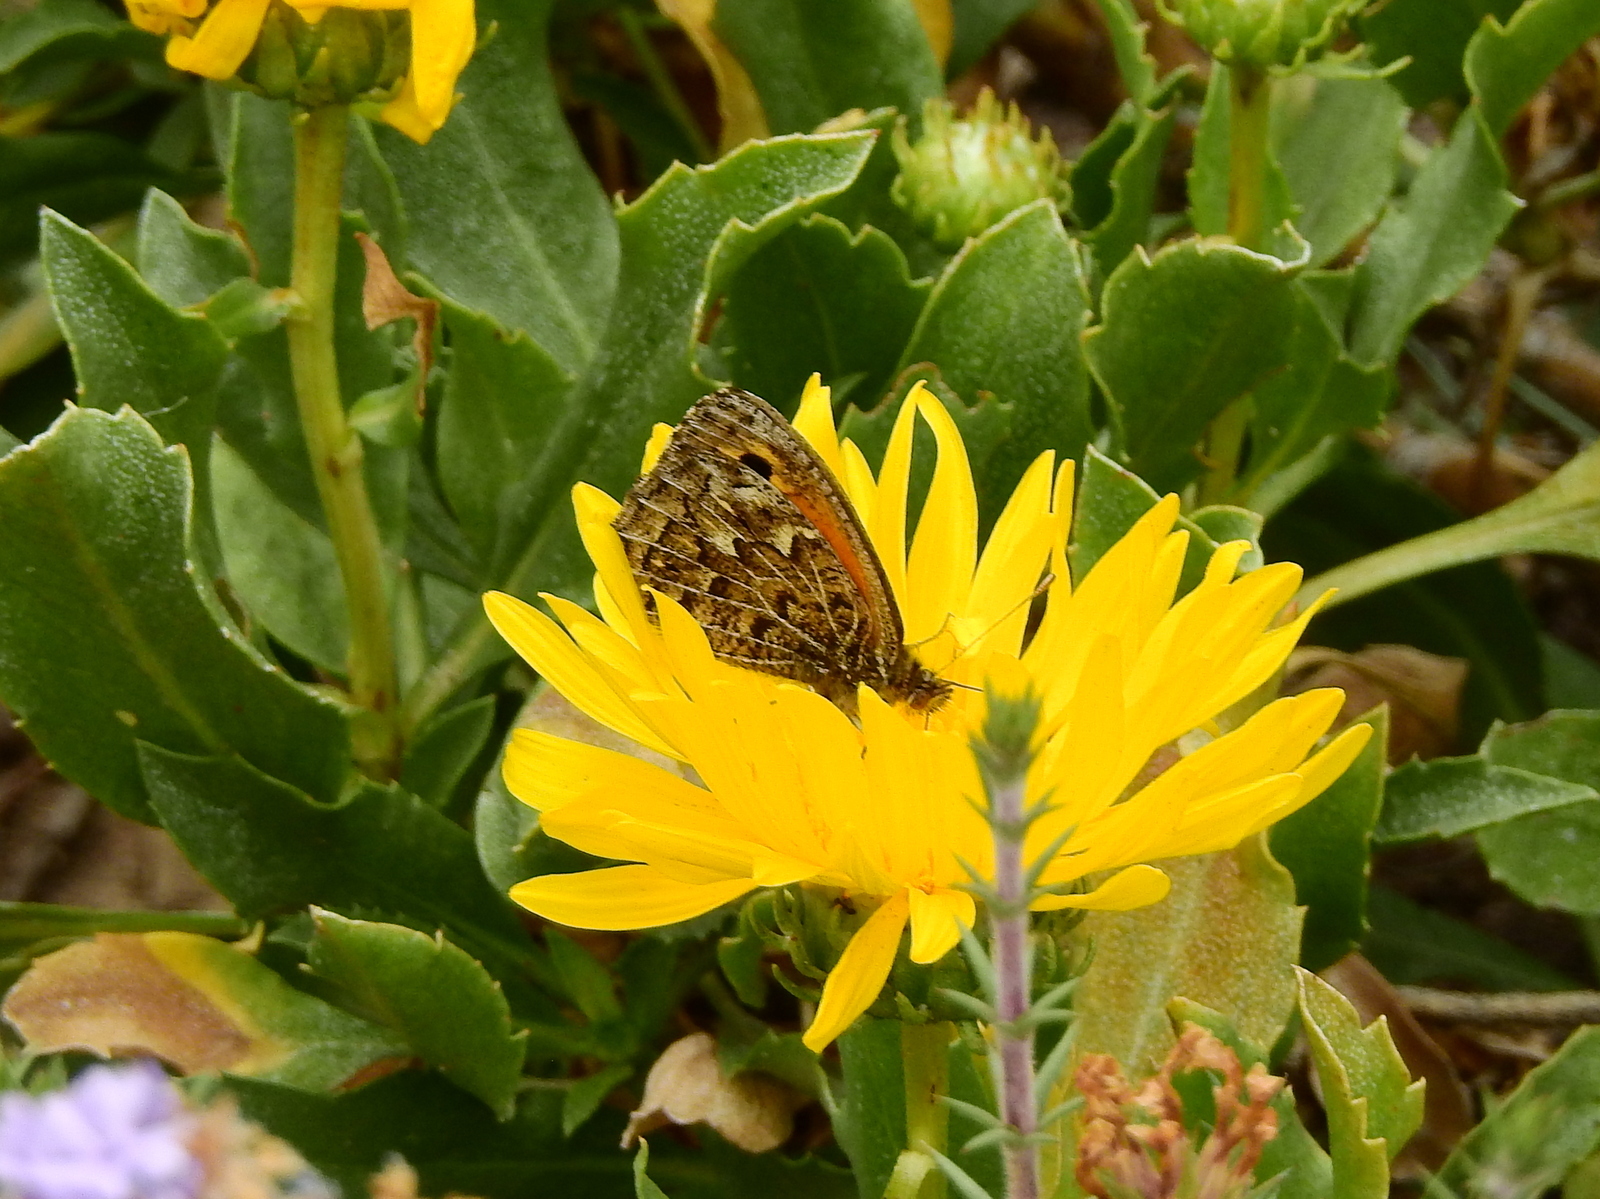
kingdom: Animalia
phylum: Arthropoda
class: Insecta
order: Lepidoptera
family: Nymphalidae
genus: Argyrophorus
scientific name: Argyrophorus
